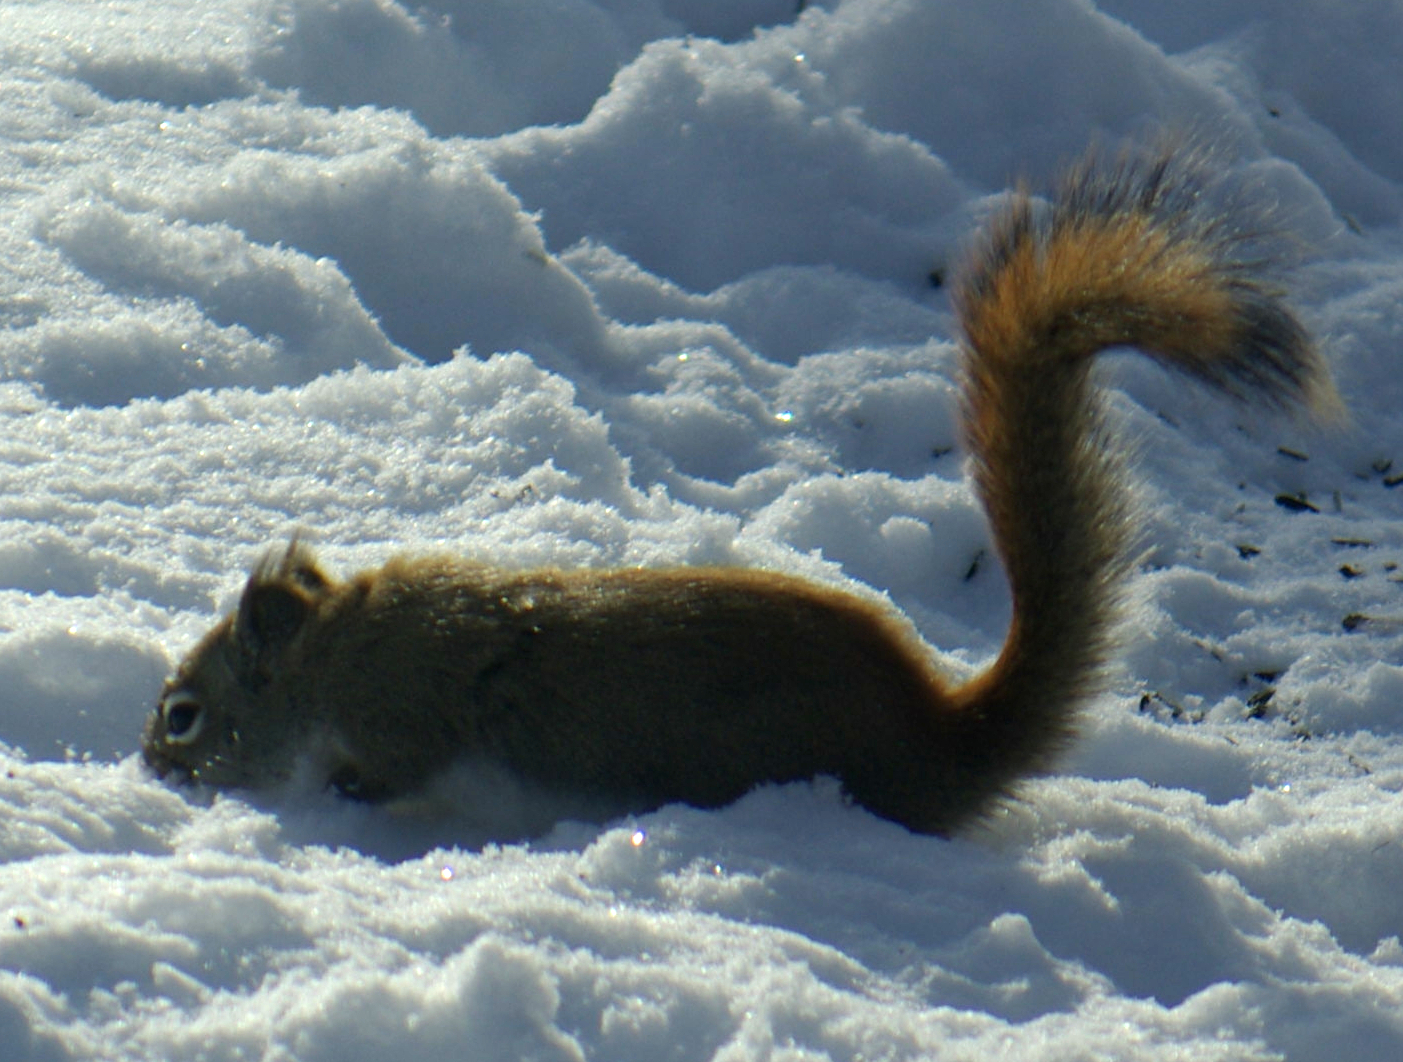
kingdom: Animalia
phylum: Chordata
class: Mammalia
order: Rodentia
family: Sciuridae
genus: Tamiasciurus
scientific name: Tamiasciurus hudsonicus
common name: Red squirrel
